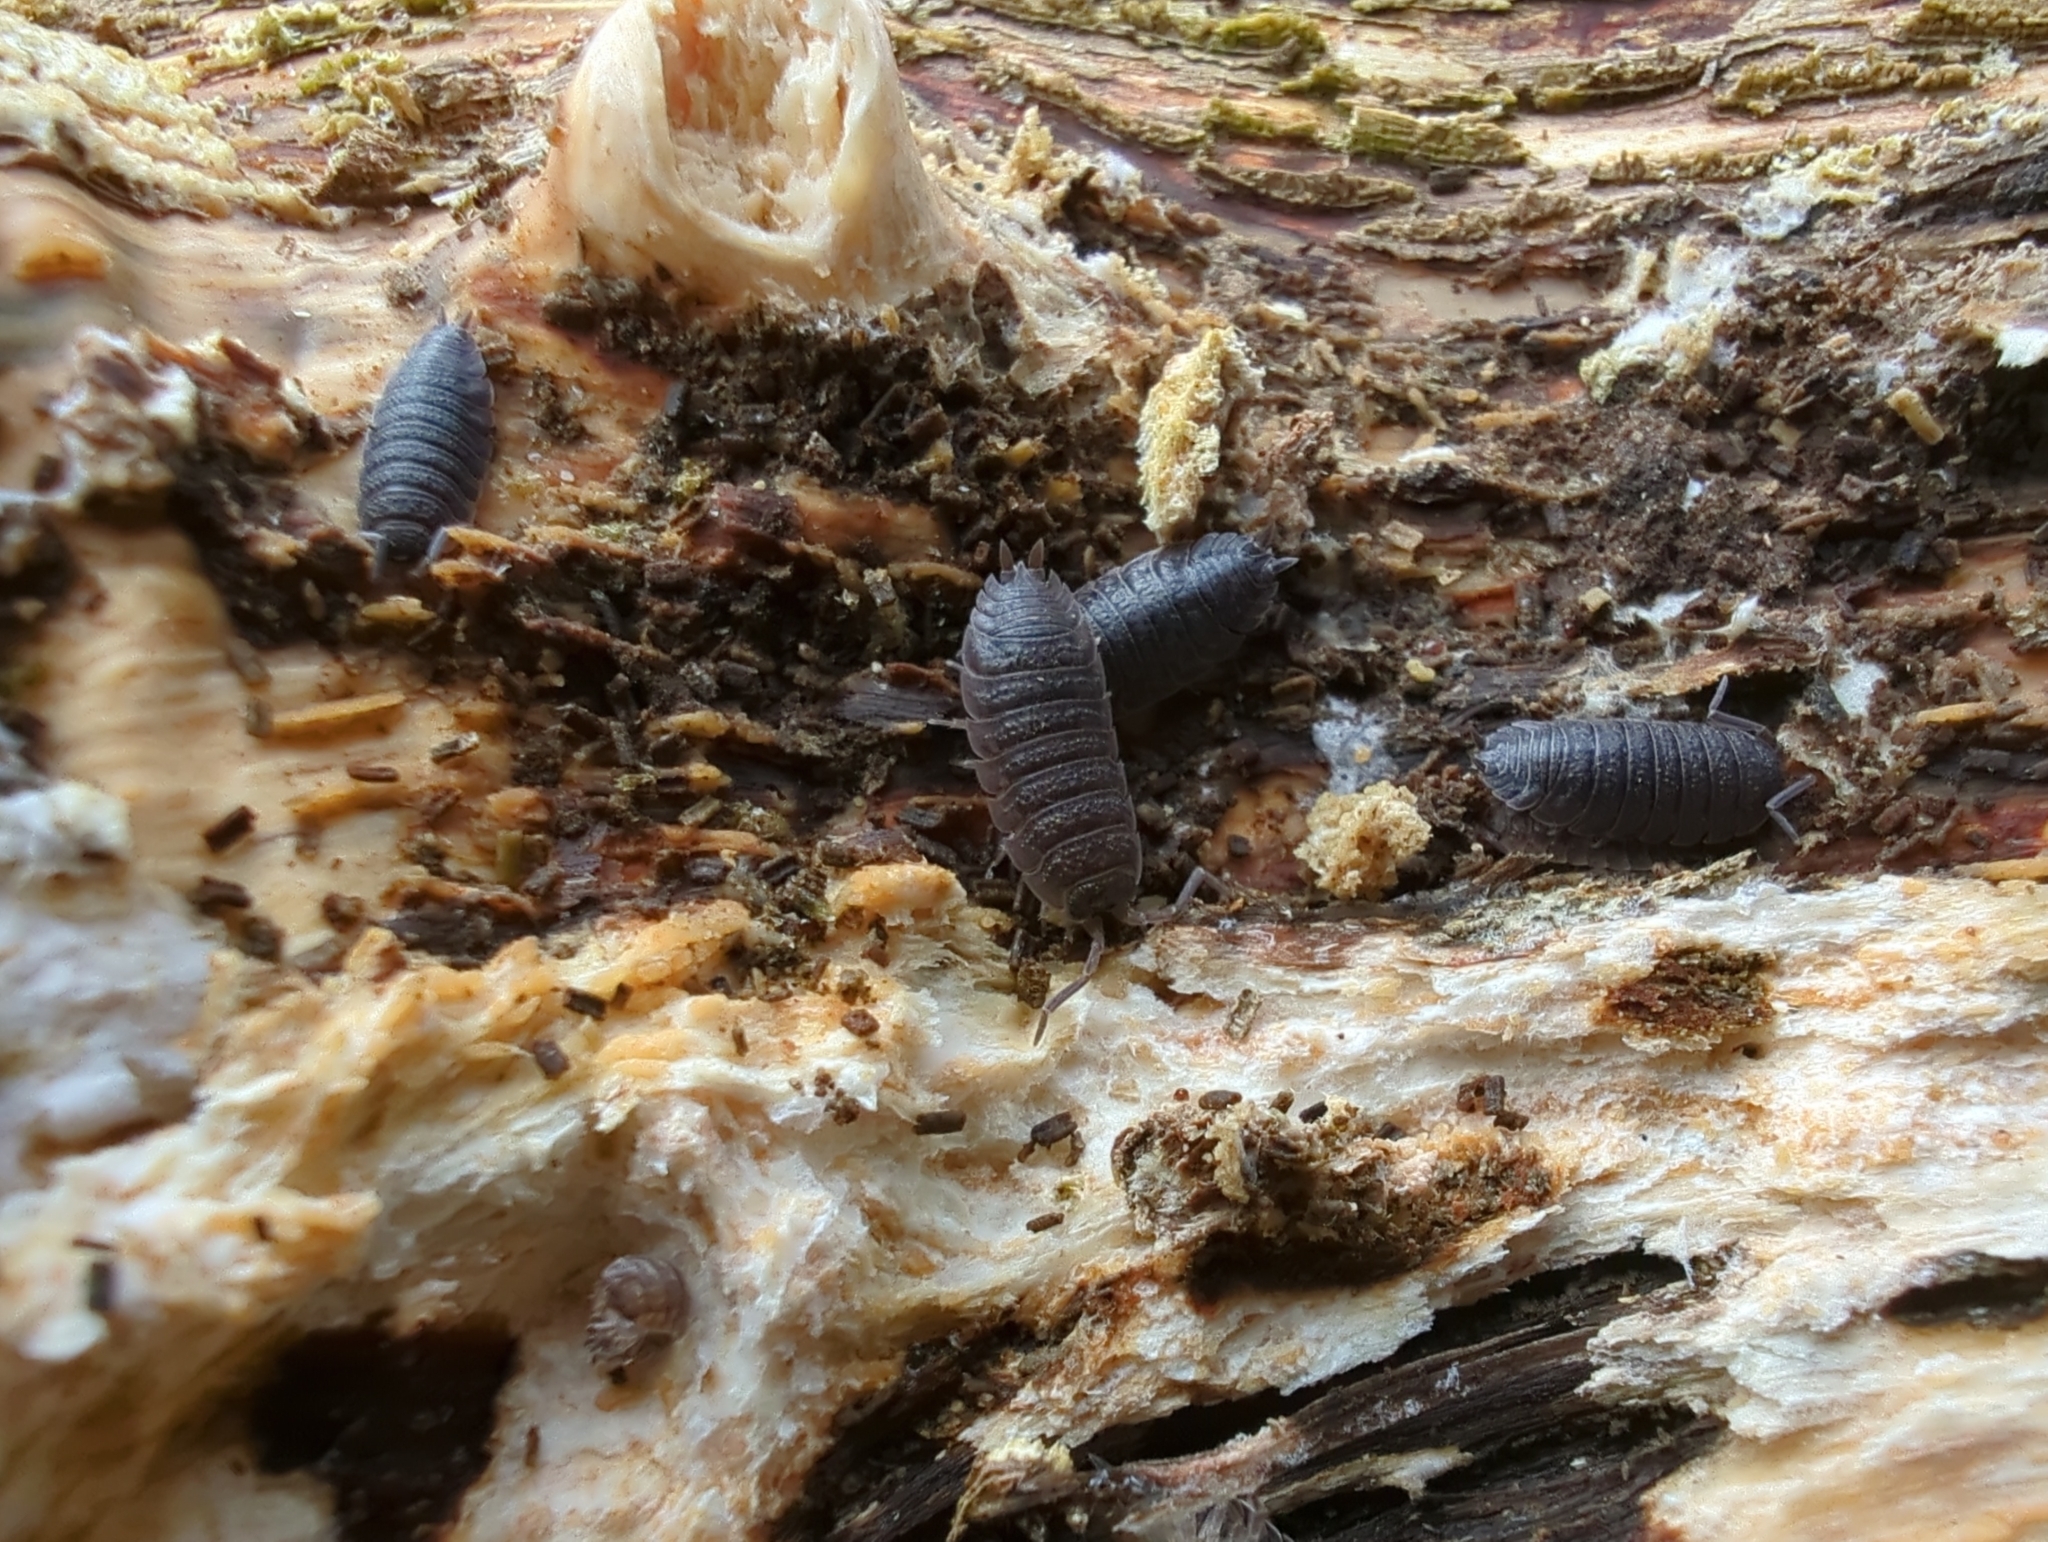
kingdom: Animalia
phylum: Arthropoda
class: Malacostraca
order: Isopoda
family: Porcellionidae
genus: Porcellio
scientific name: Porcellio scaber
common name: Common rough woodlouse
